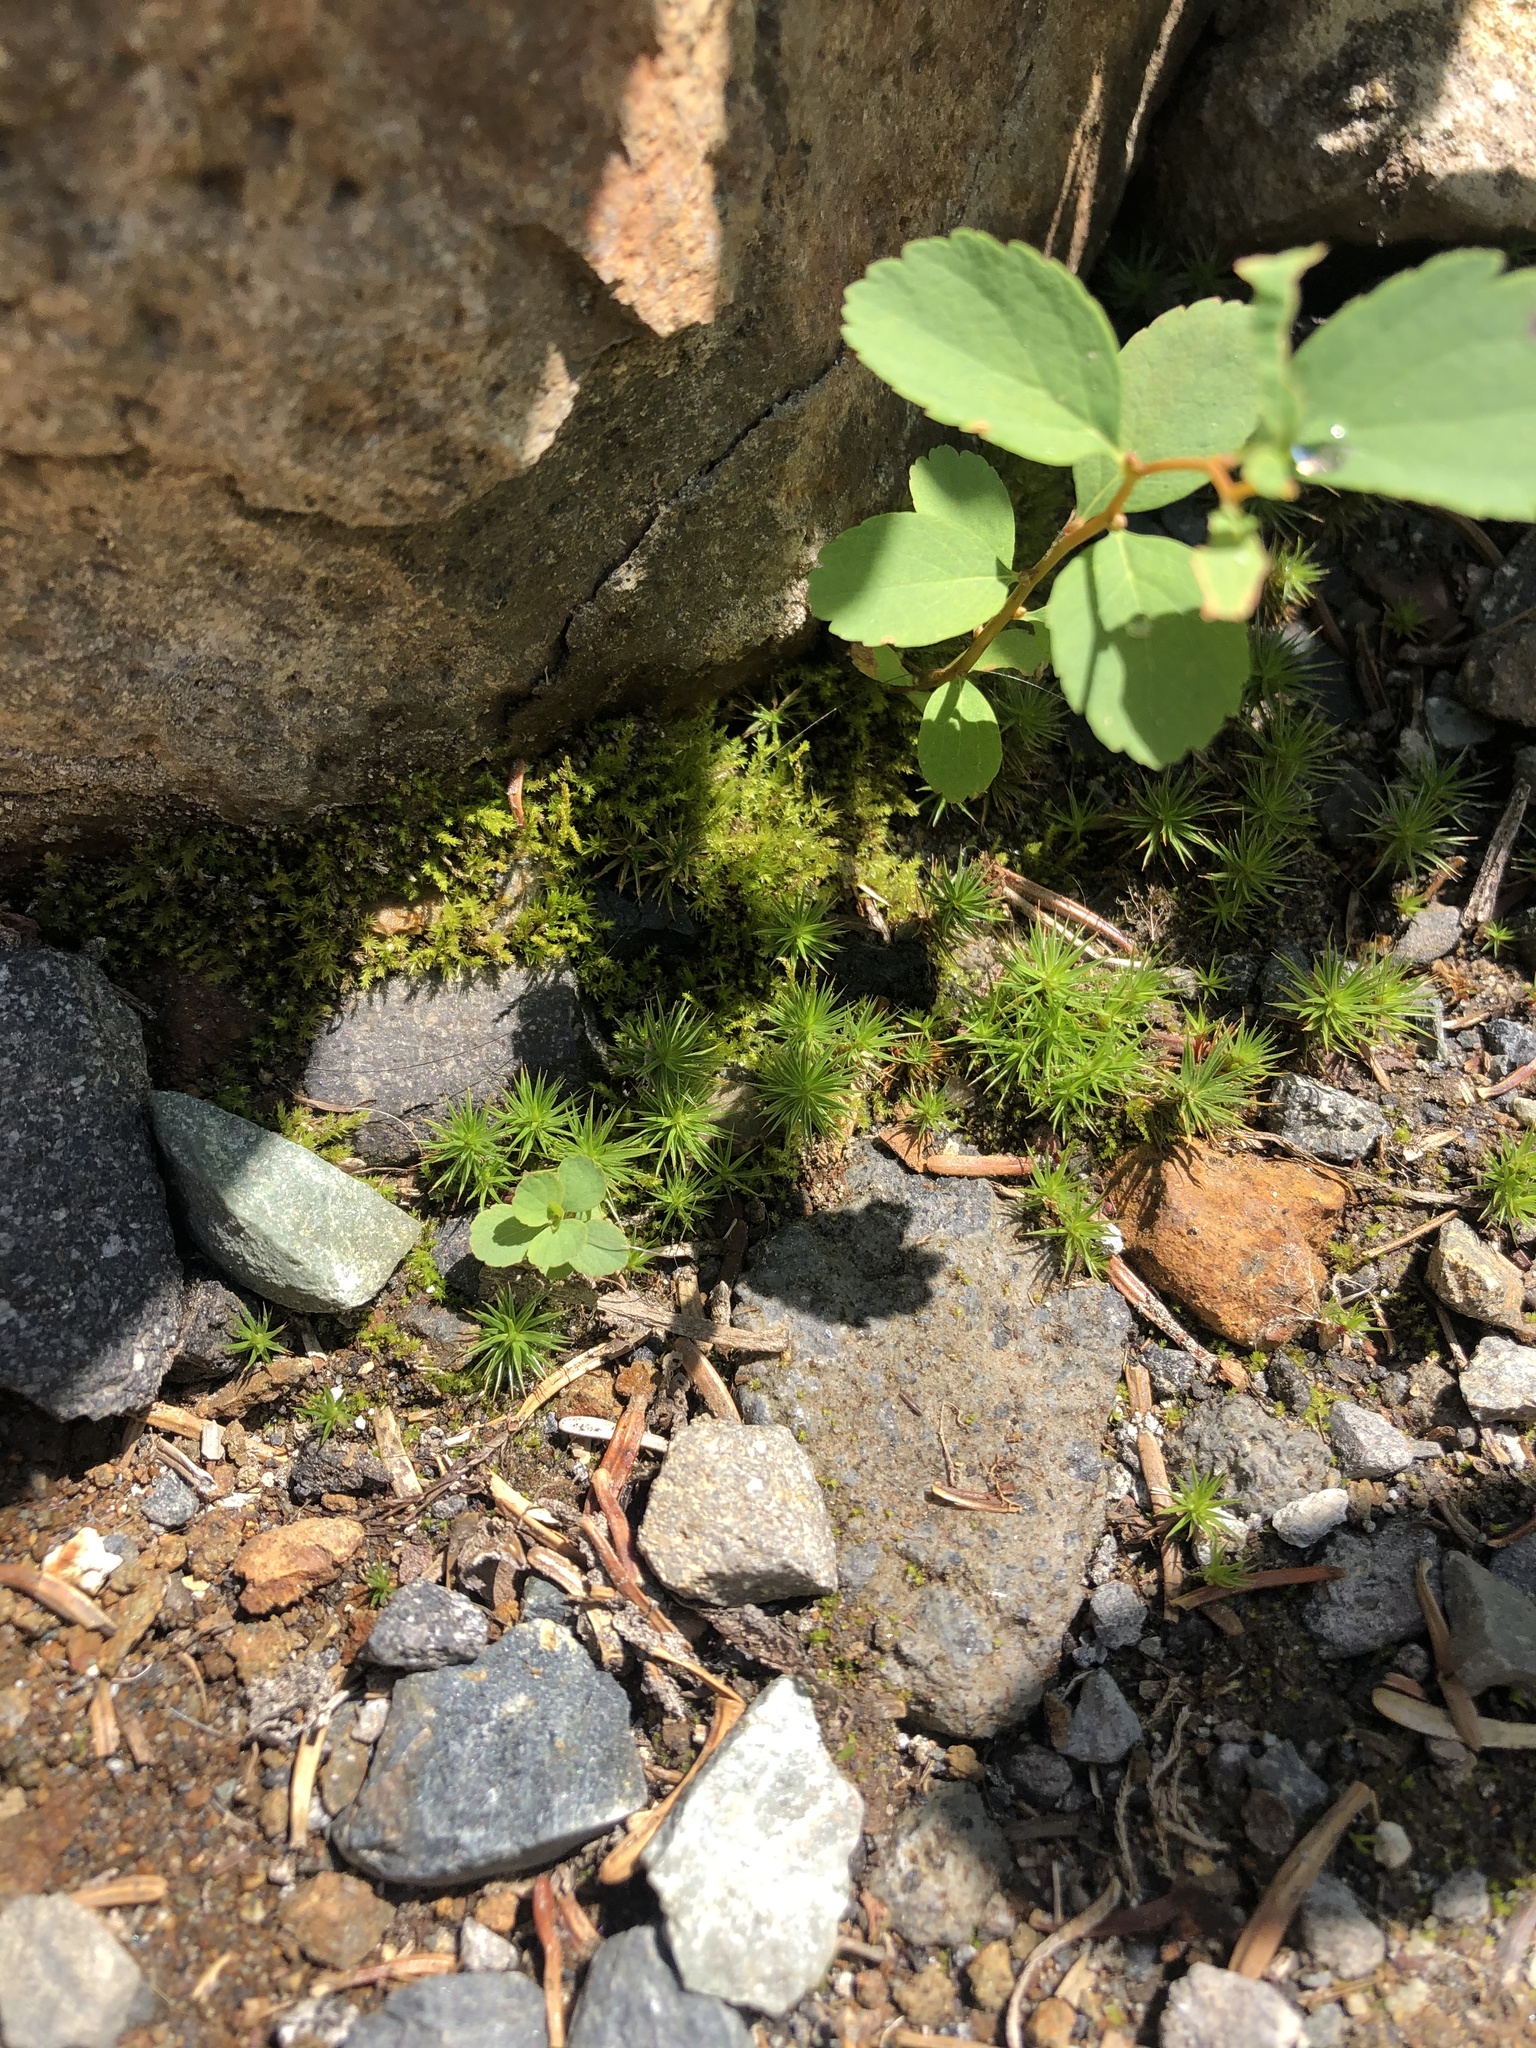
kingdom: Plantae
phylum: Bryophyta
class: Polytrichopsida
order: Polytrichales
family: Polytrichaceae
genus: Polytrichum
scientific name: Polytrichum juniperinum
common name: Juniper haircap moss
